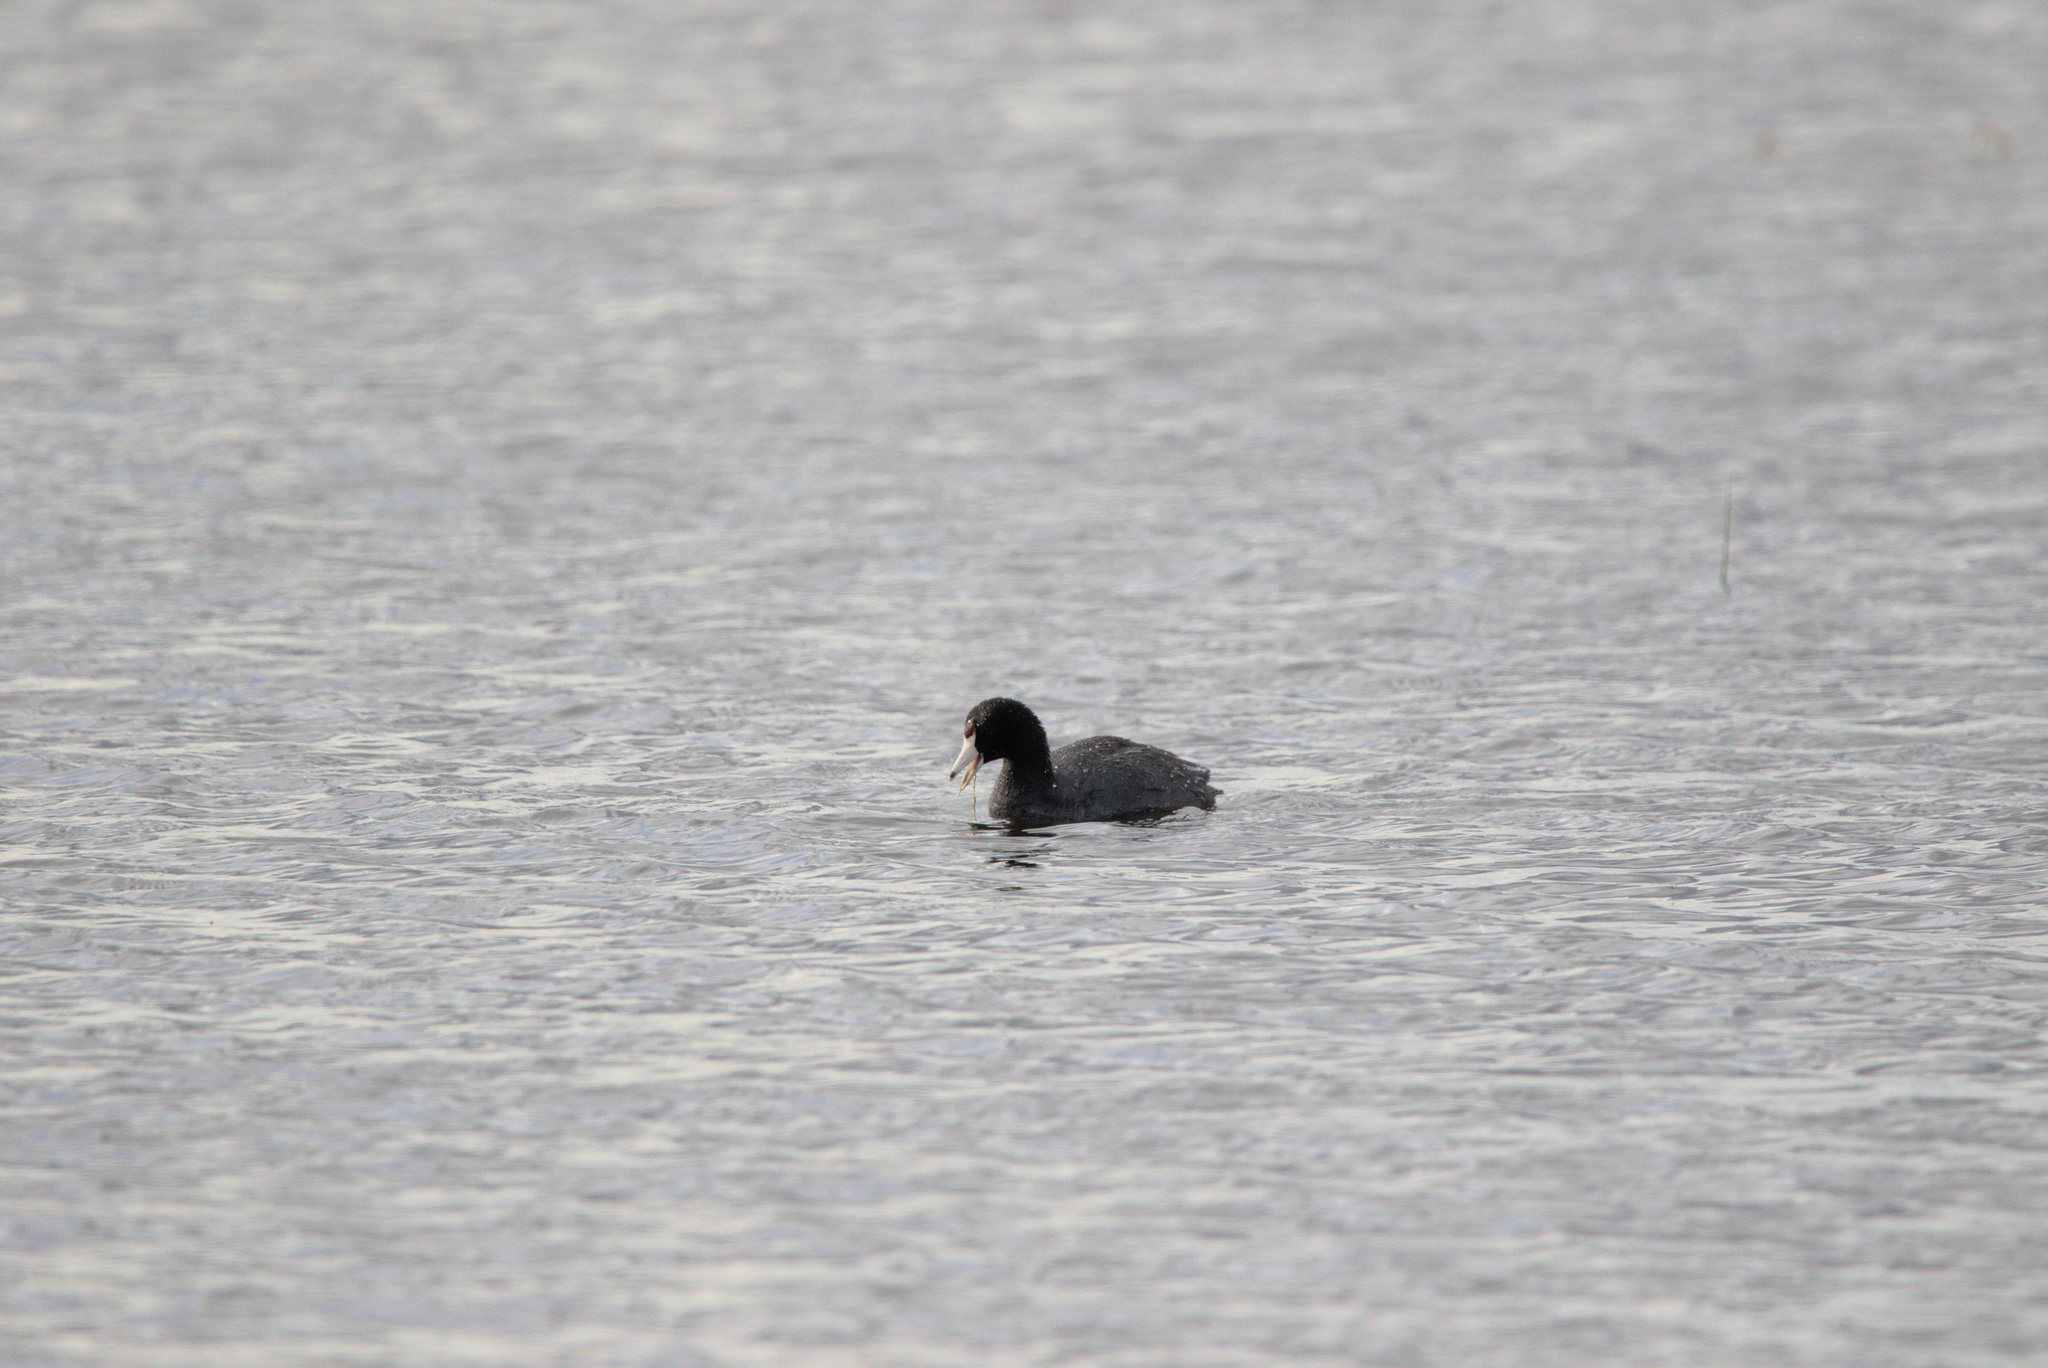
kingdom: Animalia
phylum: Chordata
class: Aves
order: Gruiformes
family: Rallidae
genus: Fulica
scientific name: Fulica americana
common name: American coot
